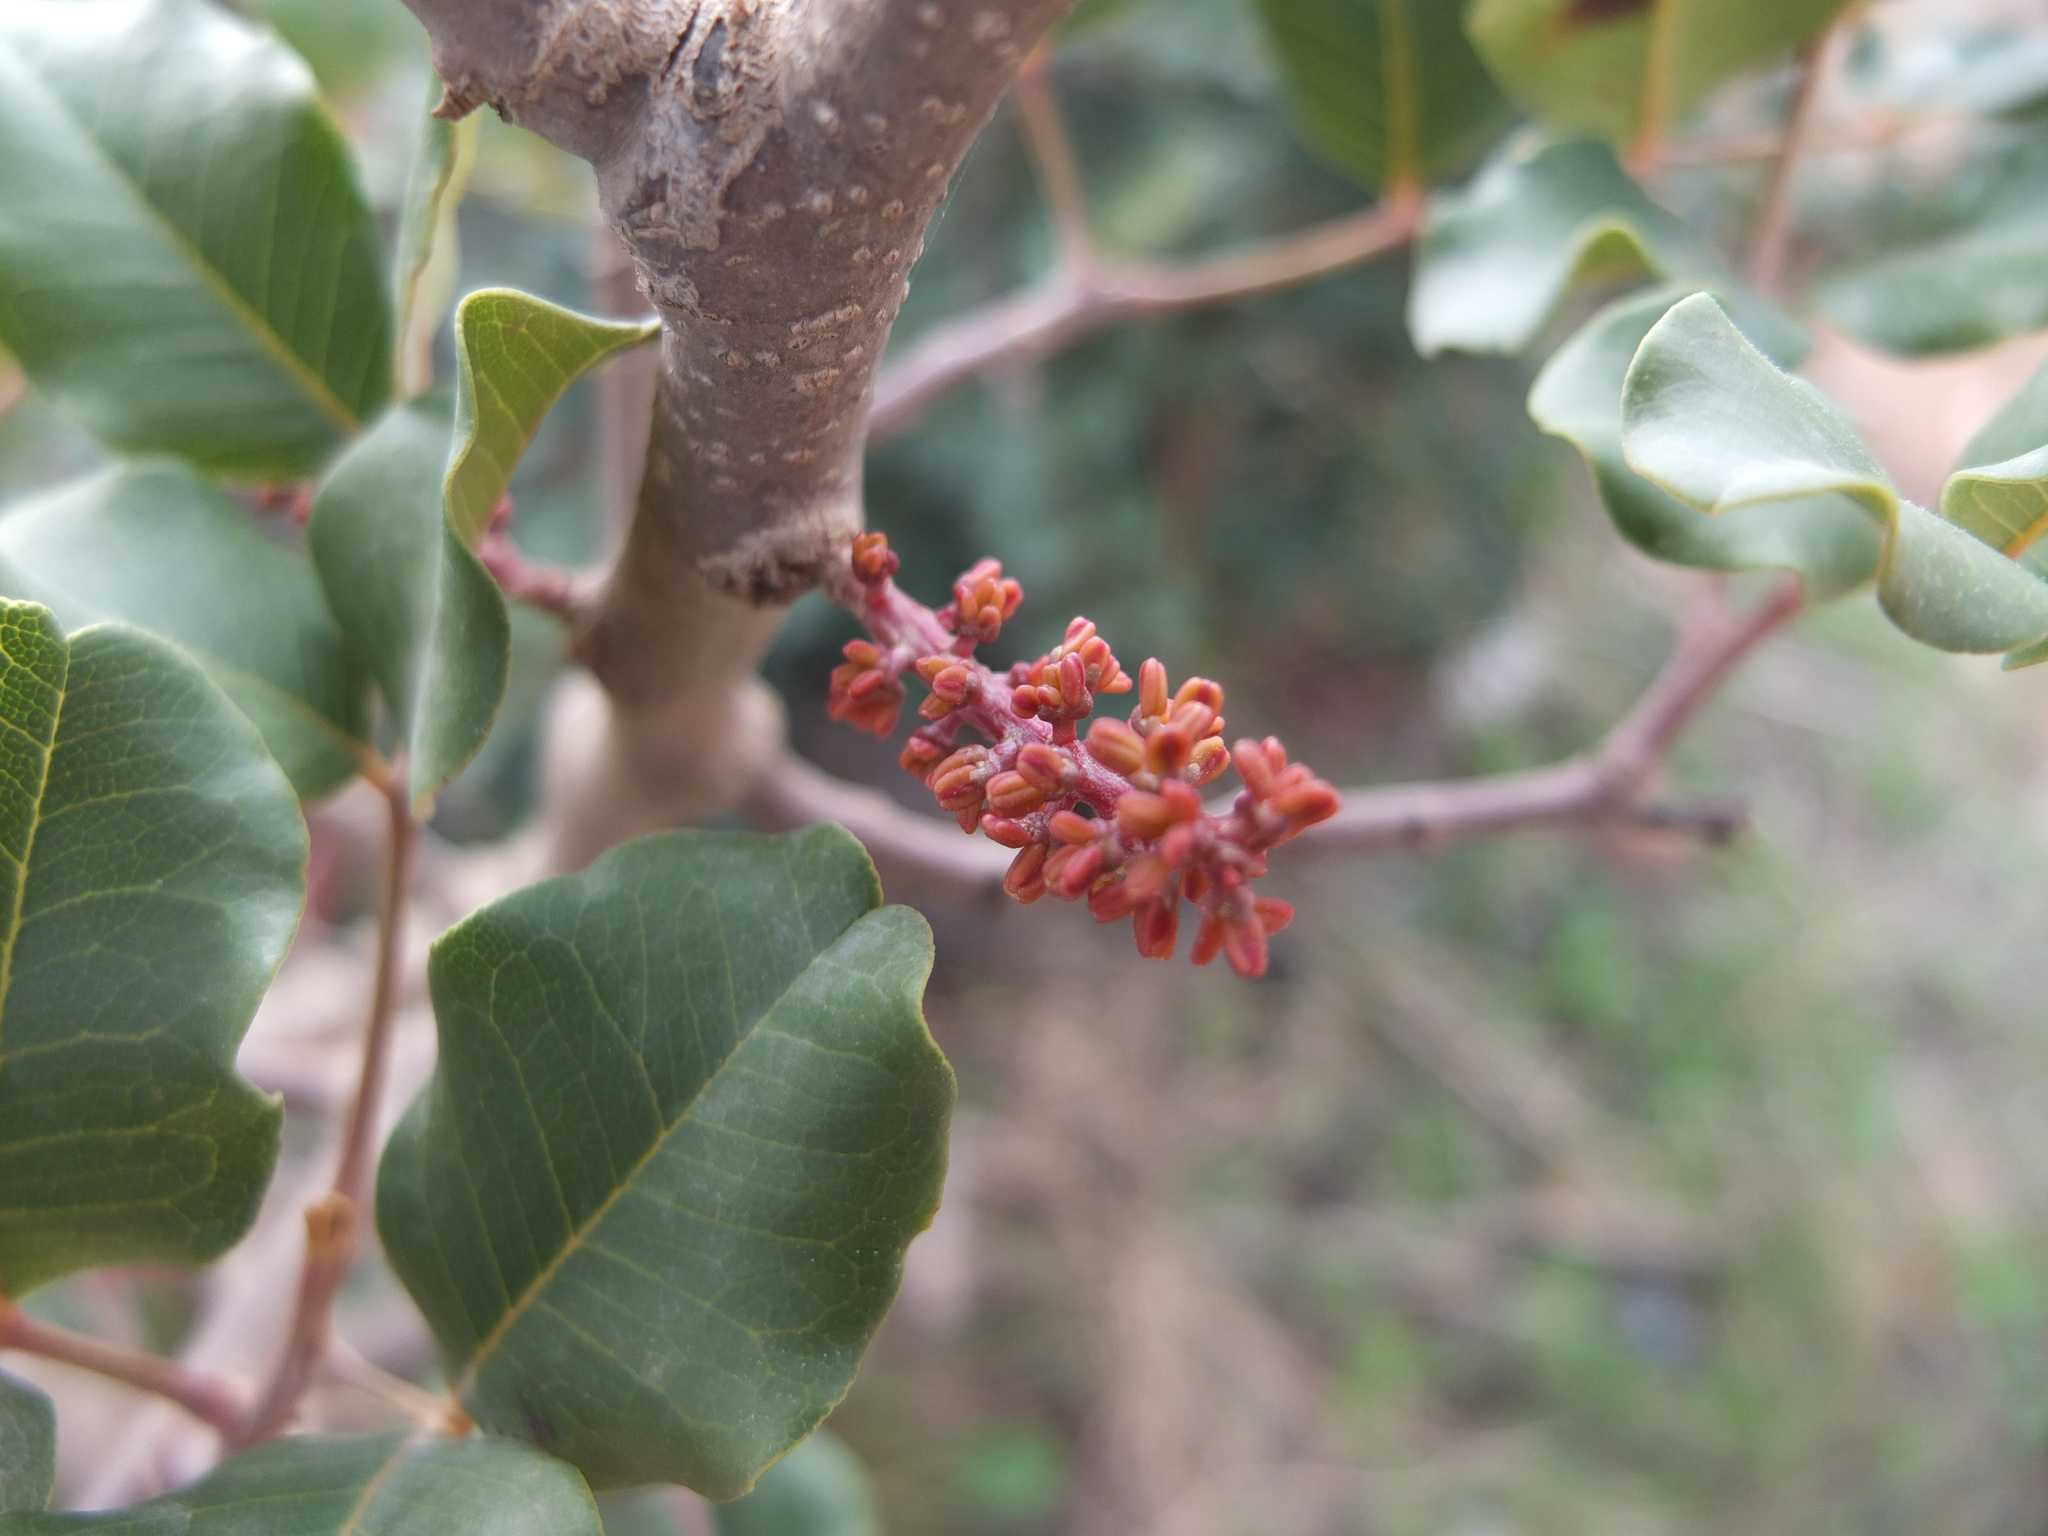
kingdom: Plantae
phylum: Tracheophyta
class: Magnoliopsida
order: Fabales
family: Fabaceae
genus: Ceratonia
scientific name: Ceratonia siliqua
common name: Carob
